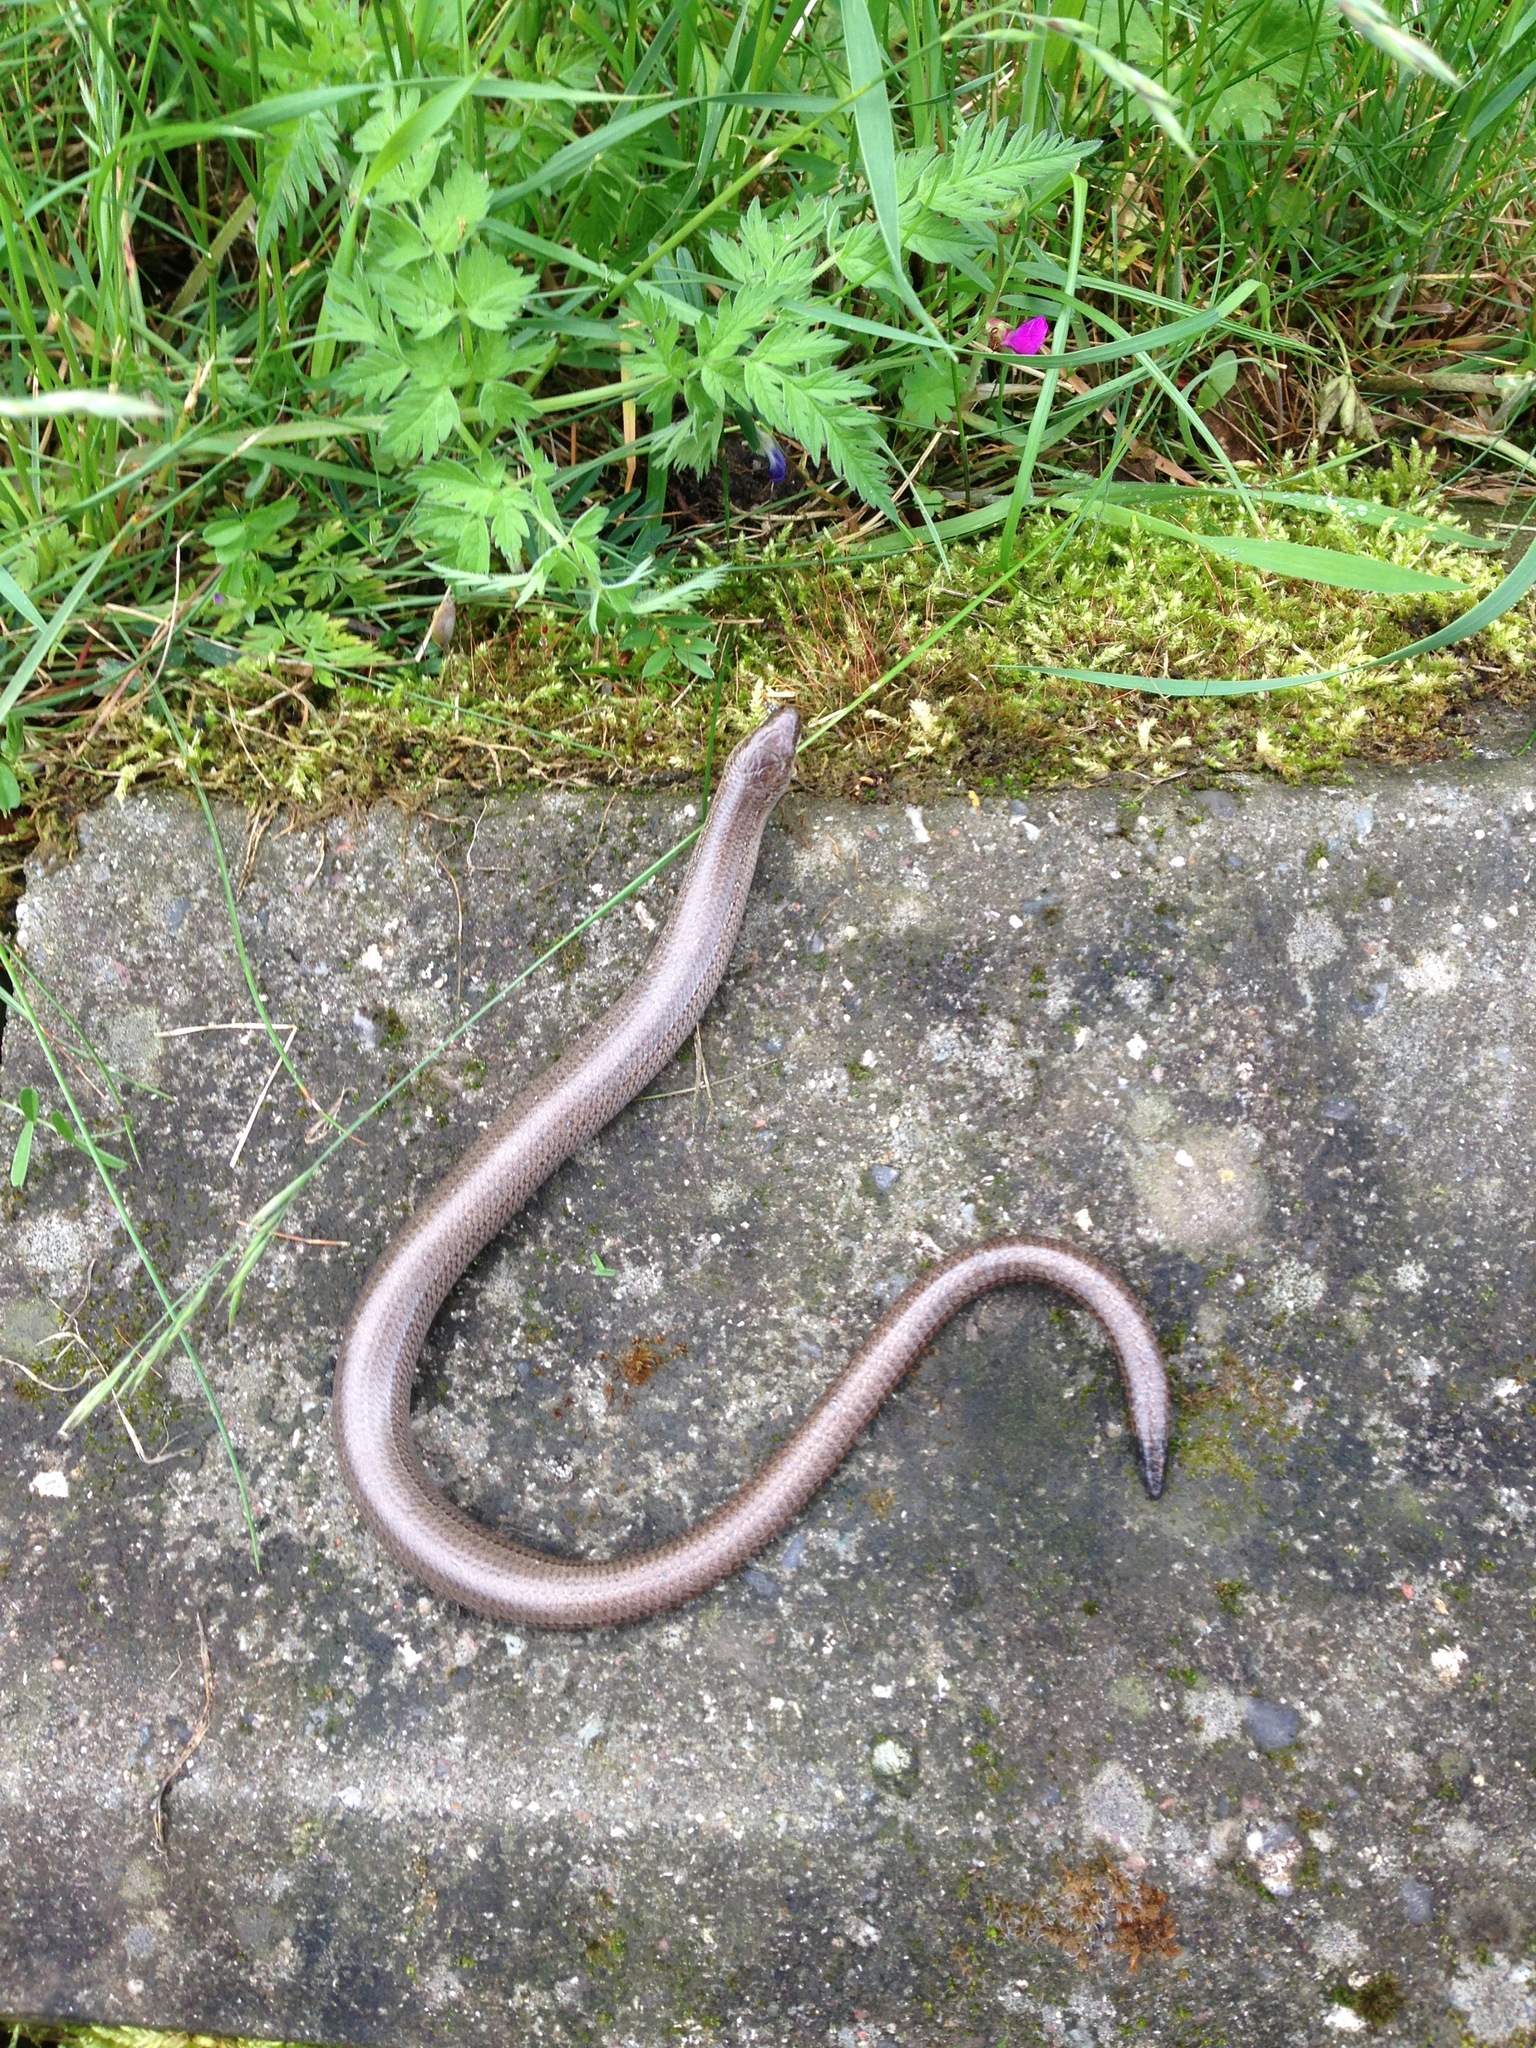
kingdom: Animalia
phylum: Chordata
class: Squamata
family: Anguidae
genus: Anguis
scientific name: Anguis fragilis
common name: Slow worm
